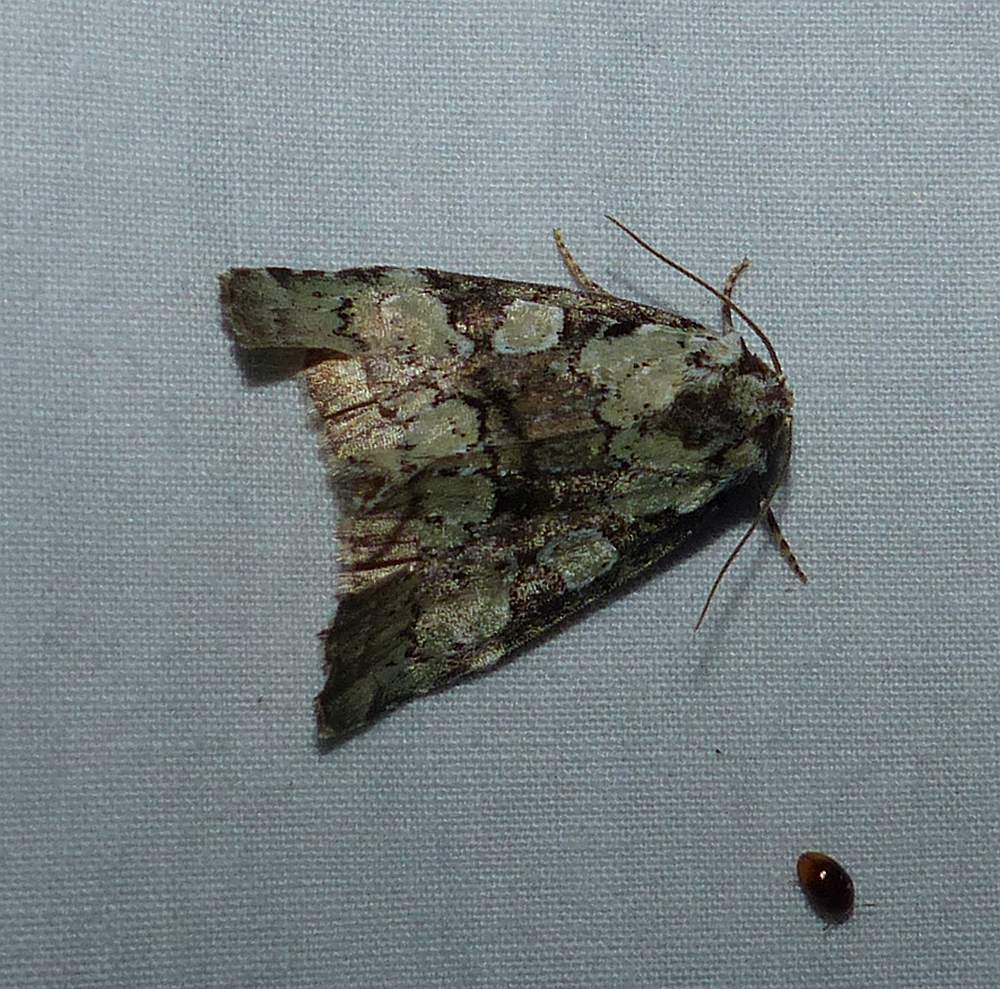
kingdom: Animalia
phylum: Arthropoda
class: Insecta
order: Lepidoptera
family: Noctuidae
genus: Leuconycta
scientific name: Leuconycta lepidula
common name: Marbled-green leuconycta moth
